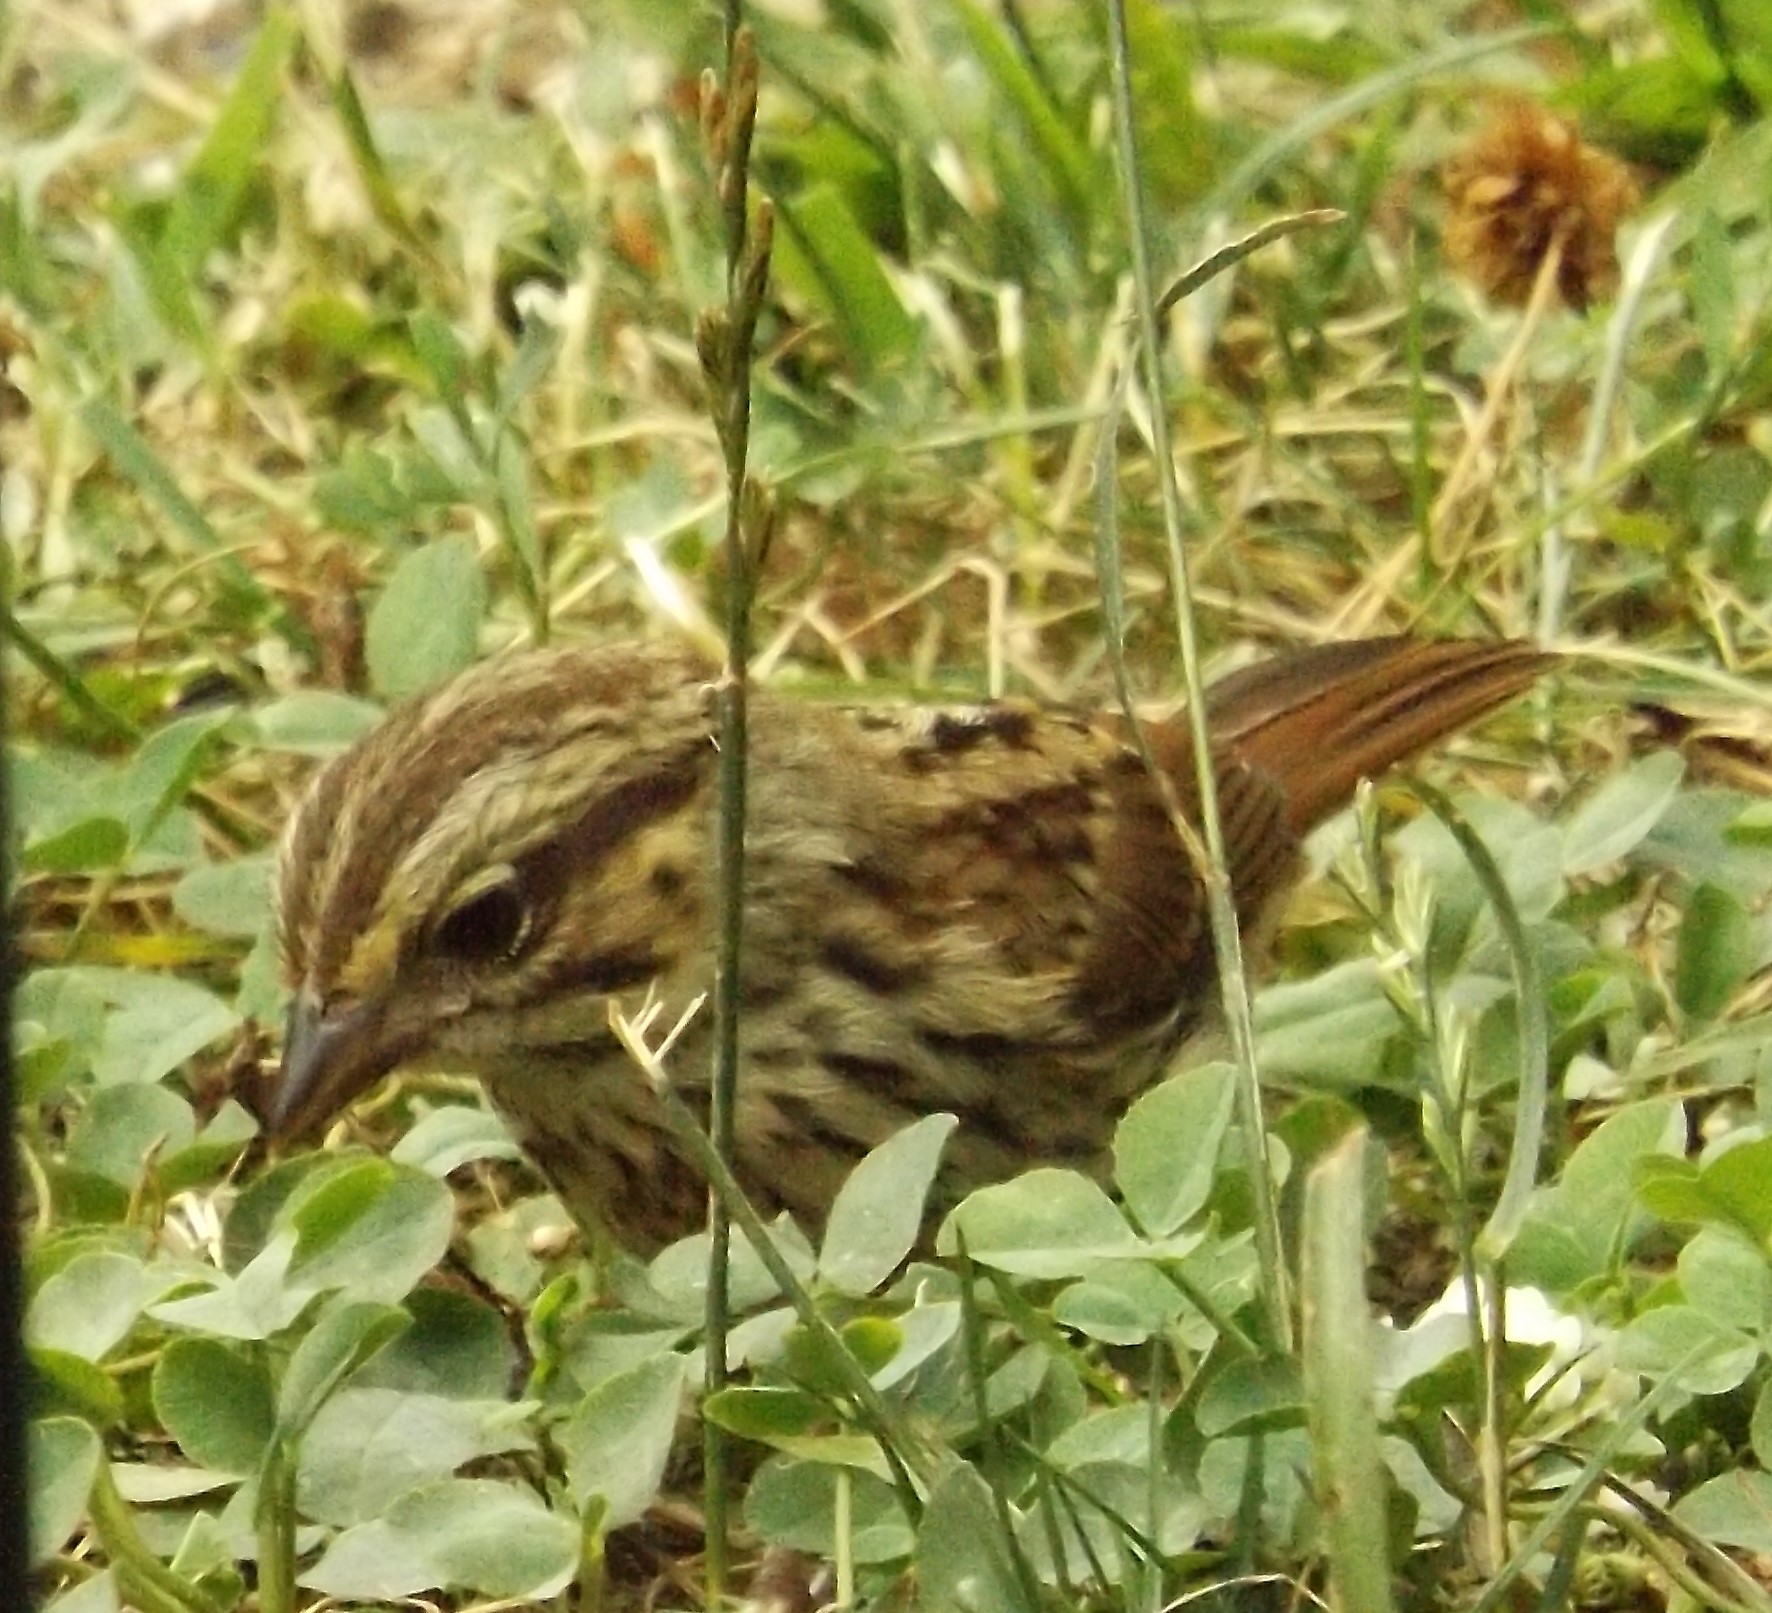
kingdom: Animalia
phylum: Chordata
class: Aves
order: Passeriformes
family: Passerellidae
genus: Melospiza
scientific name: Melospiza melodia
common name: Song sparrow
